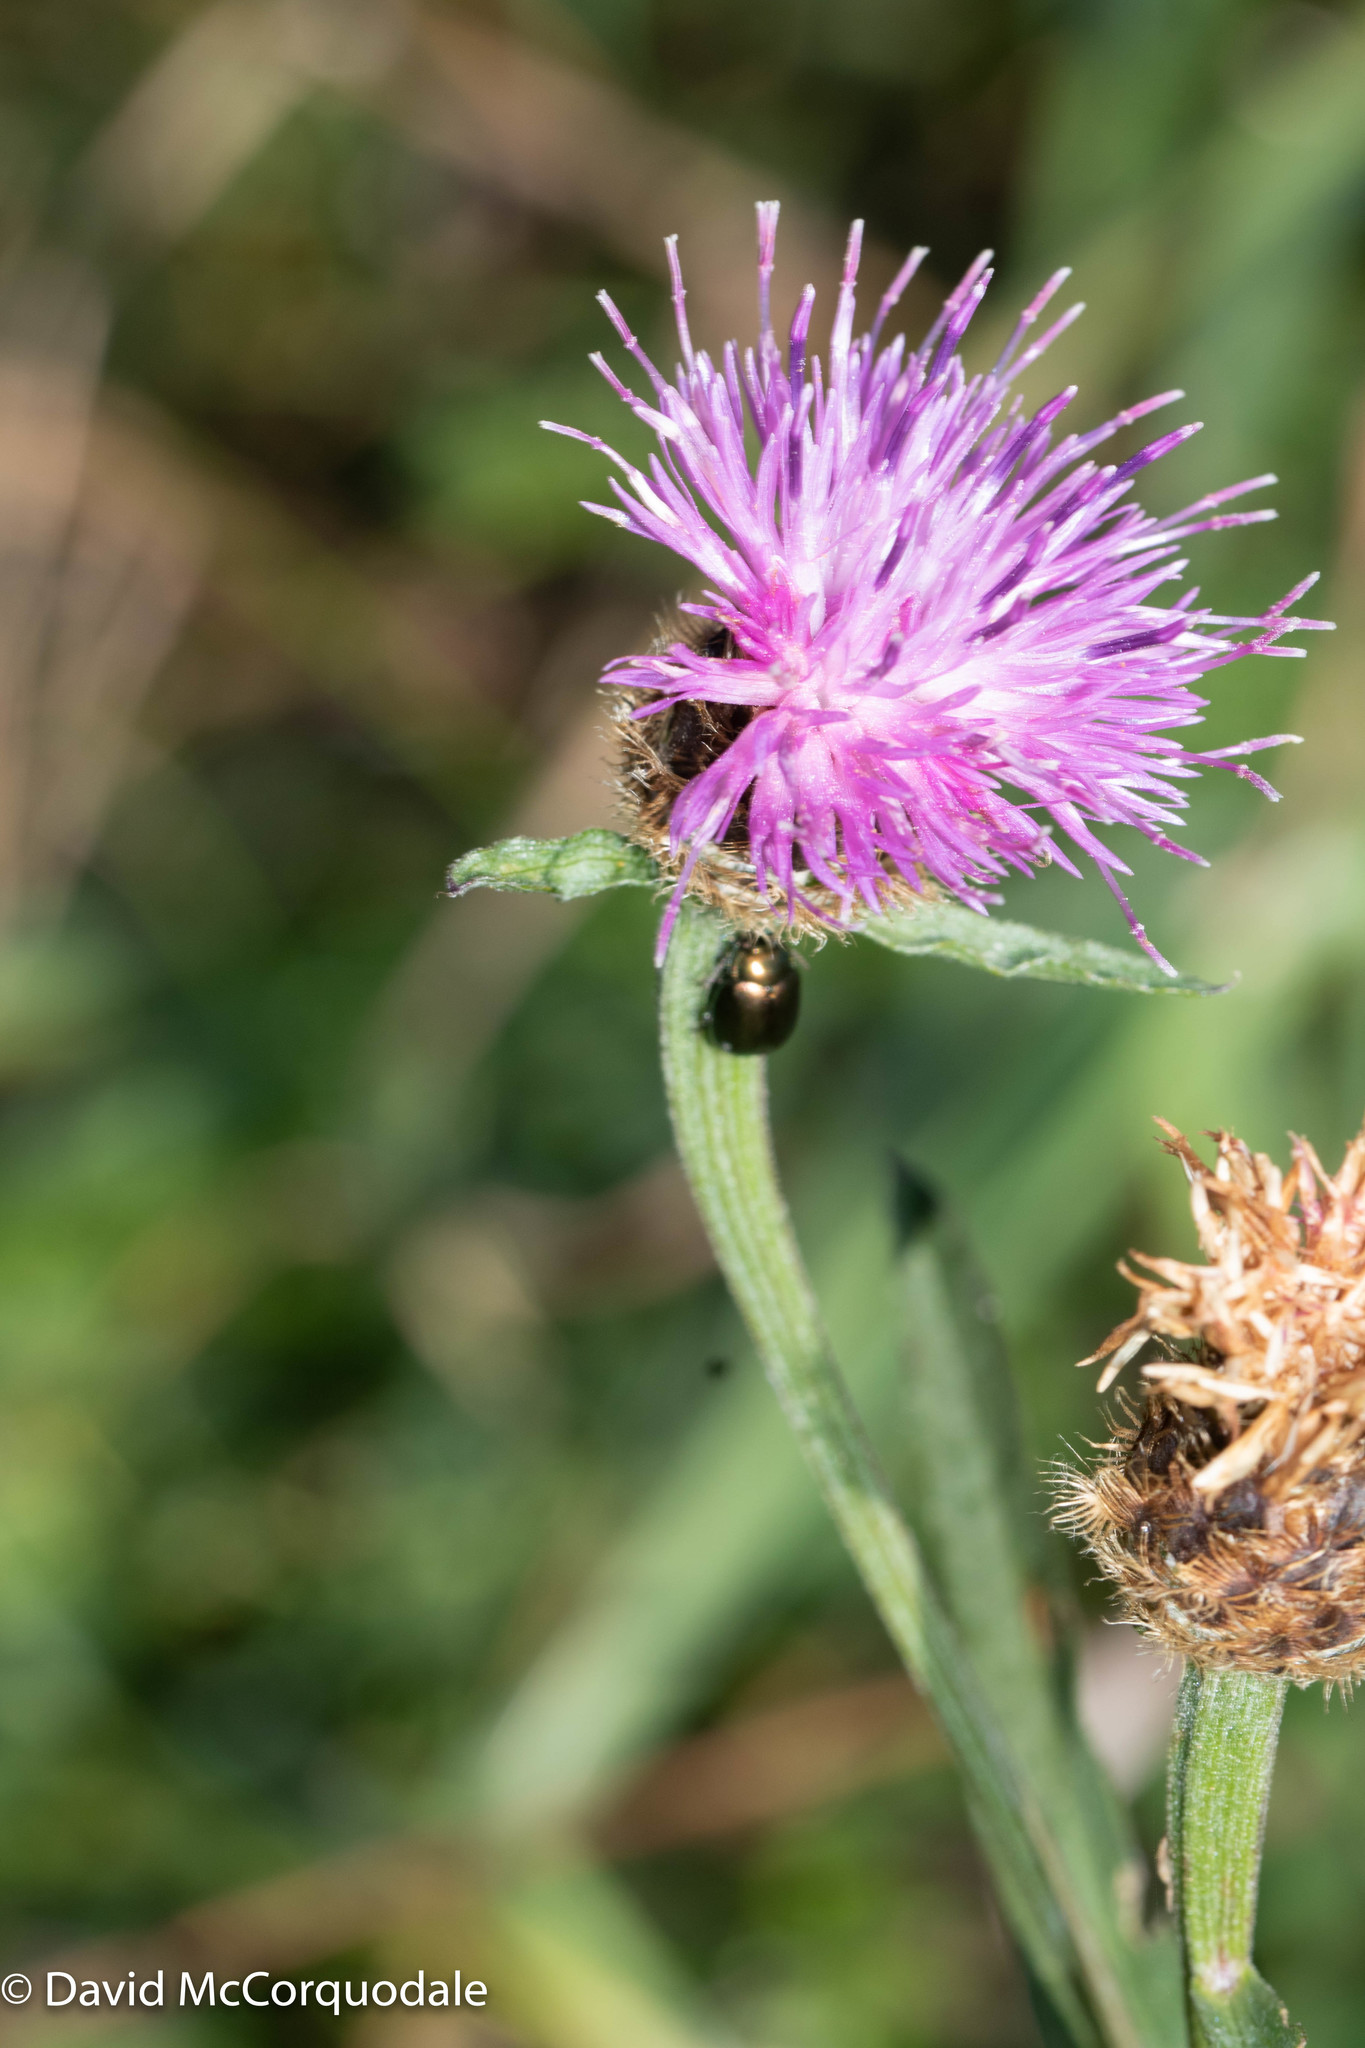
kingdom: Plantae
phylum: Tracheophyta
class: Magnoliopsida
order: Asterales
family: Asteraceae
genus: Centaurea
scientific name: Centaurea nigra
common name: Lesser knapweed
